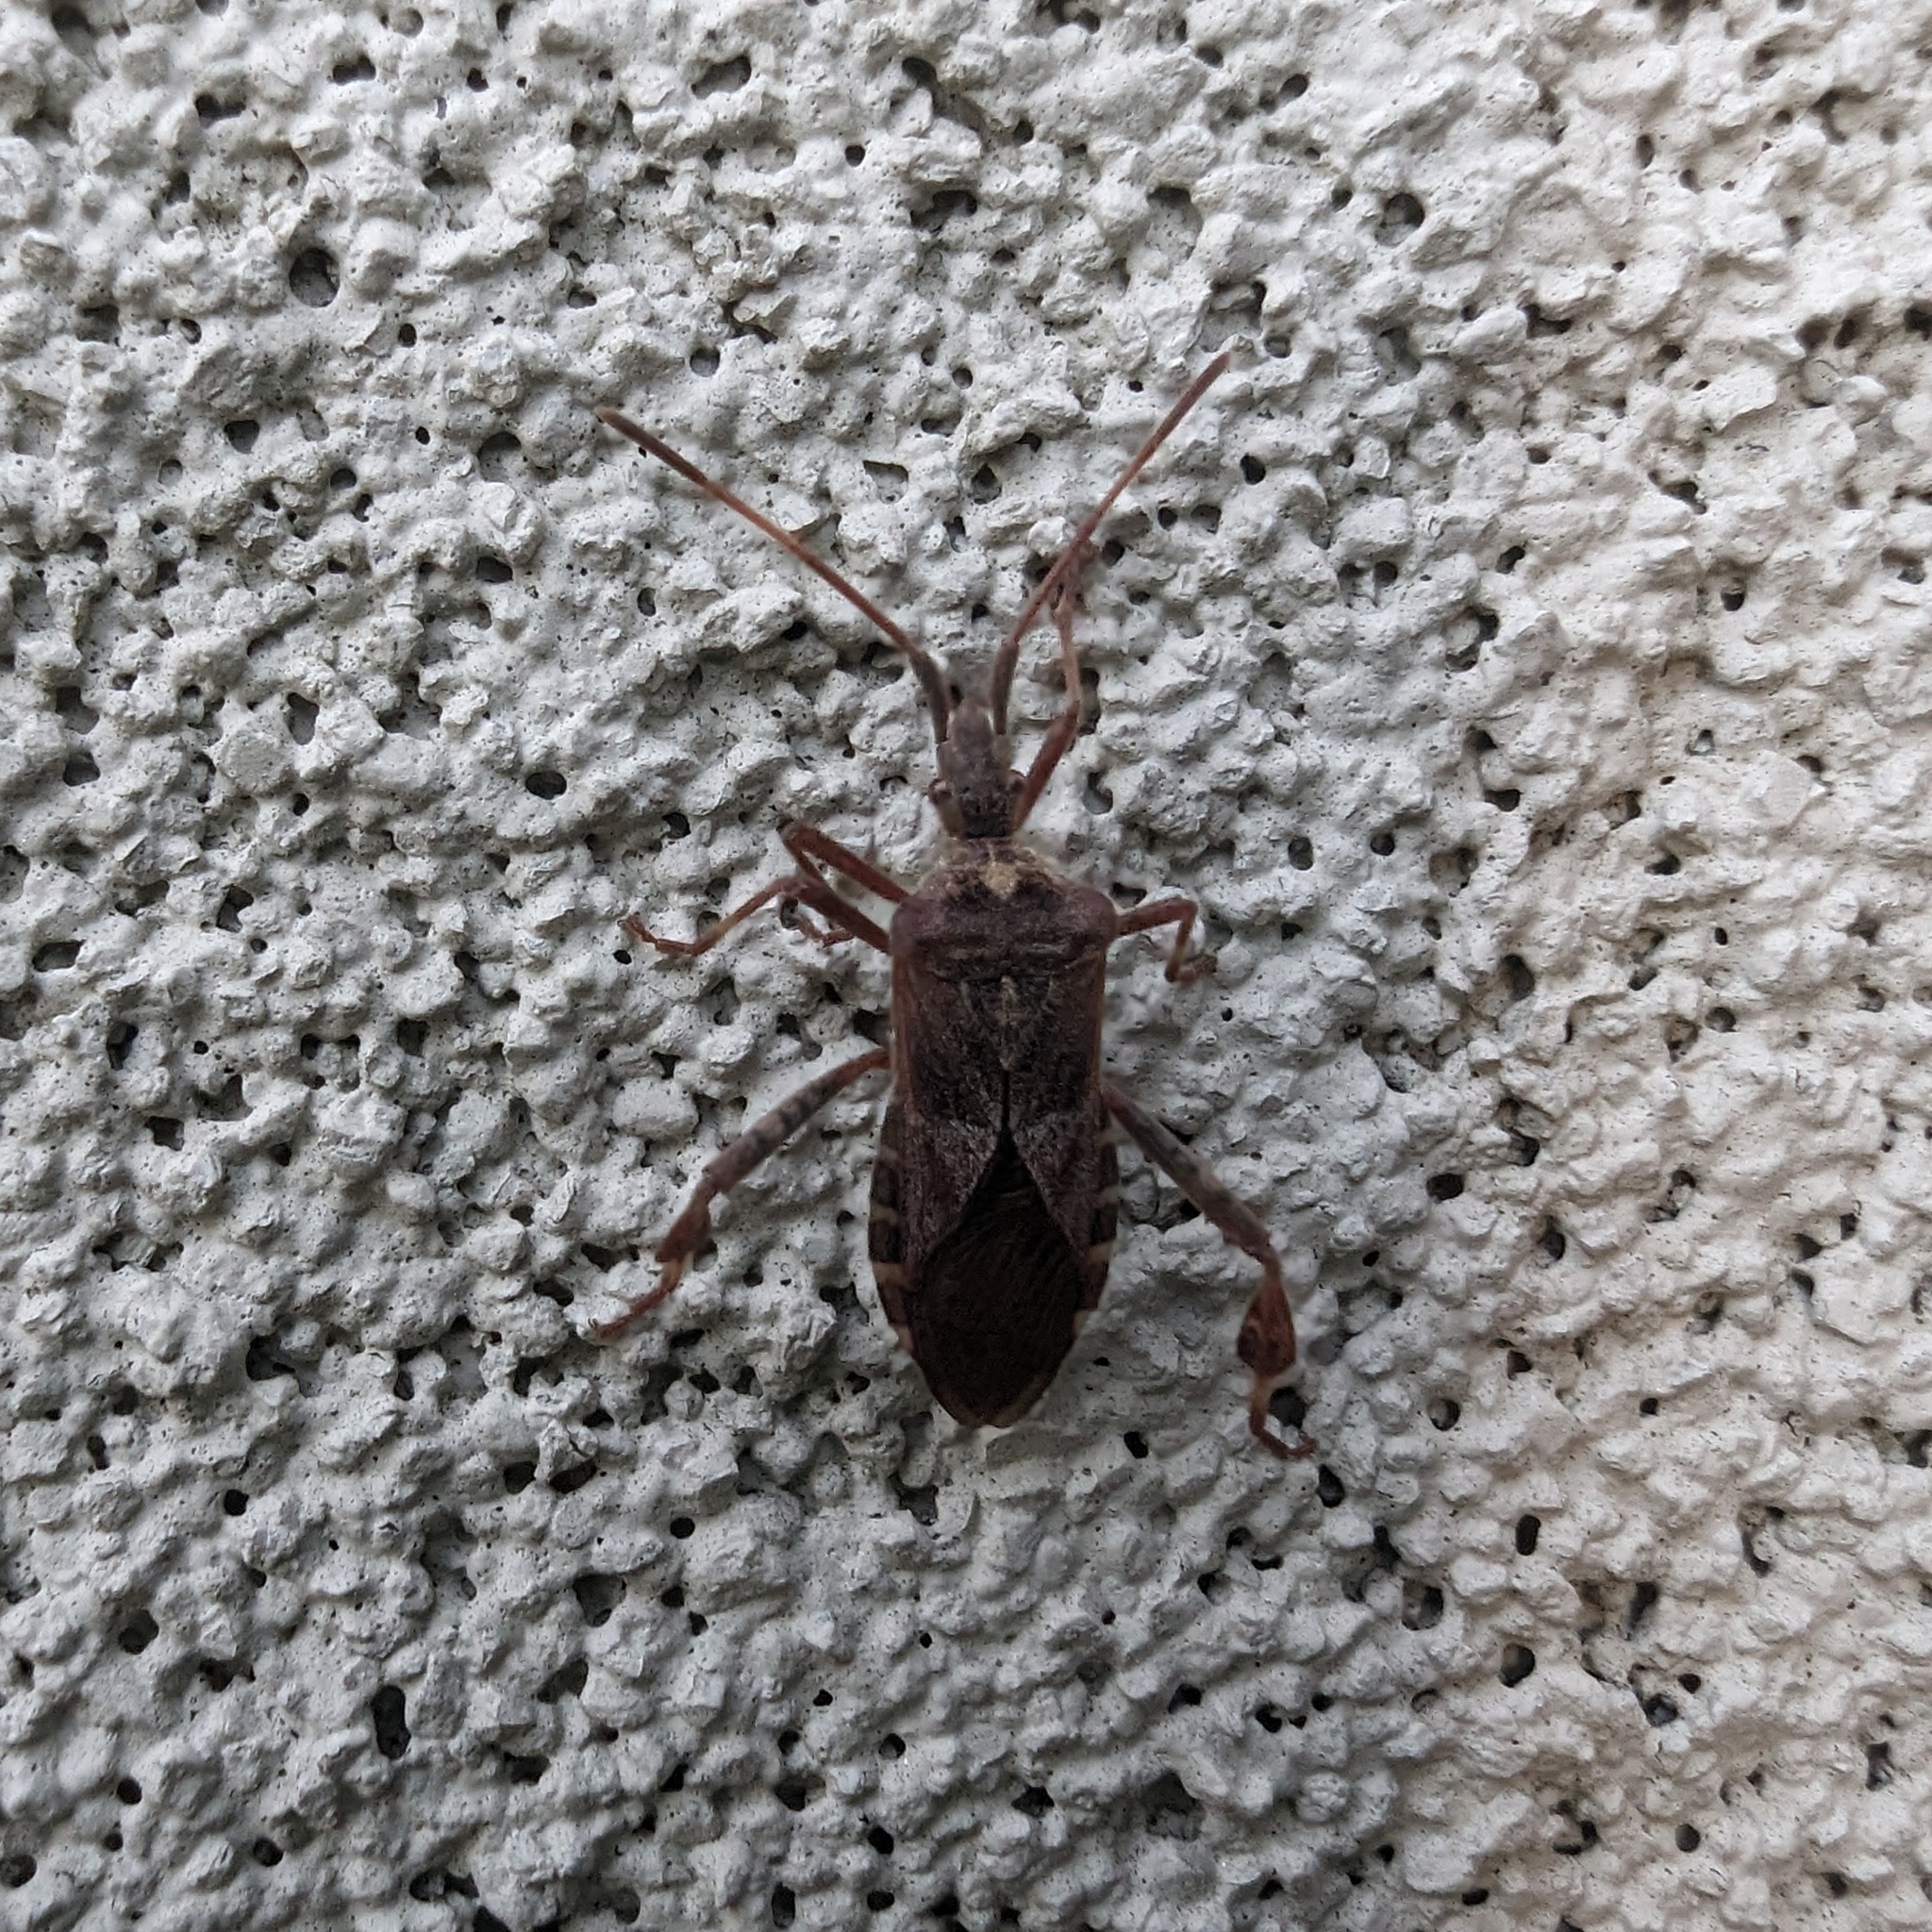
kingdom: Animalia
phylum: Arthropoda
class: Insecta
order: Hemiptera
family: Coreidae
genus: Leptoglossus
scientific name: Leptoglossus occidentalis
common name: Western conifer-seed bug
